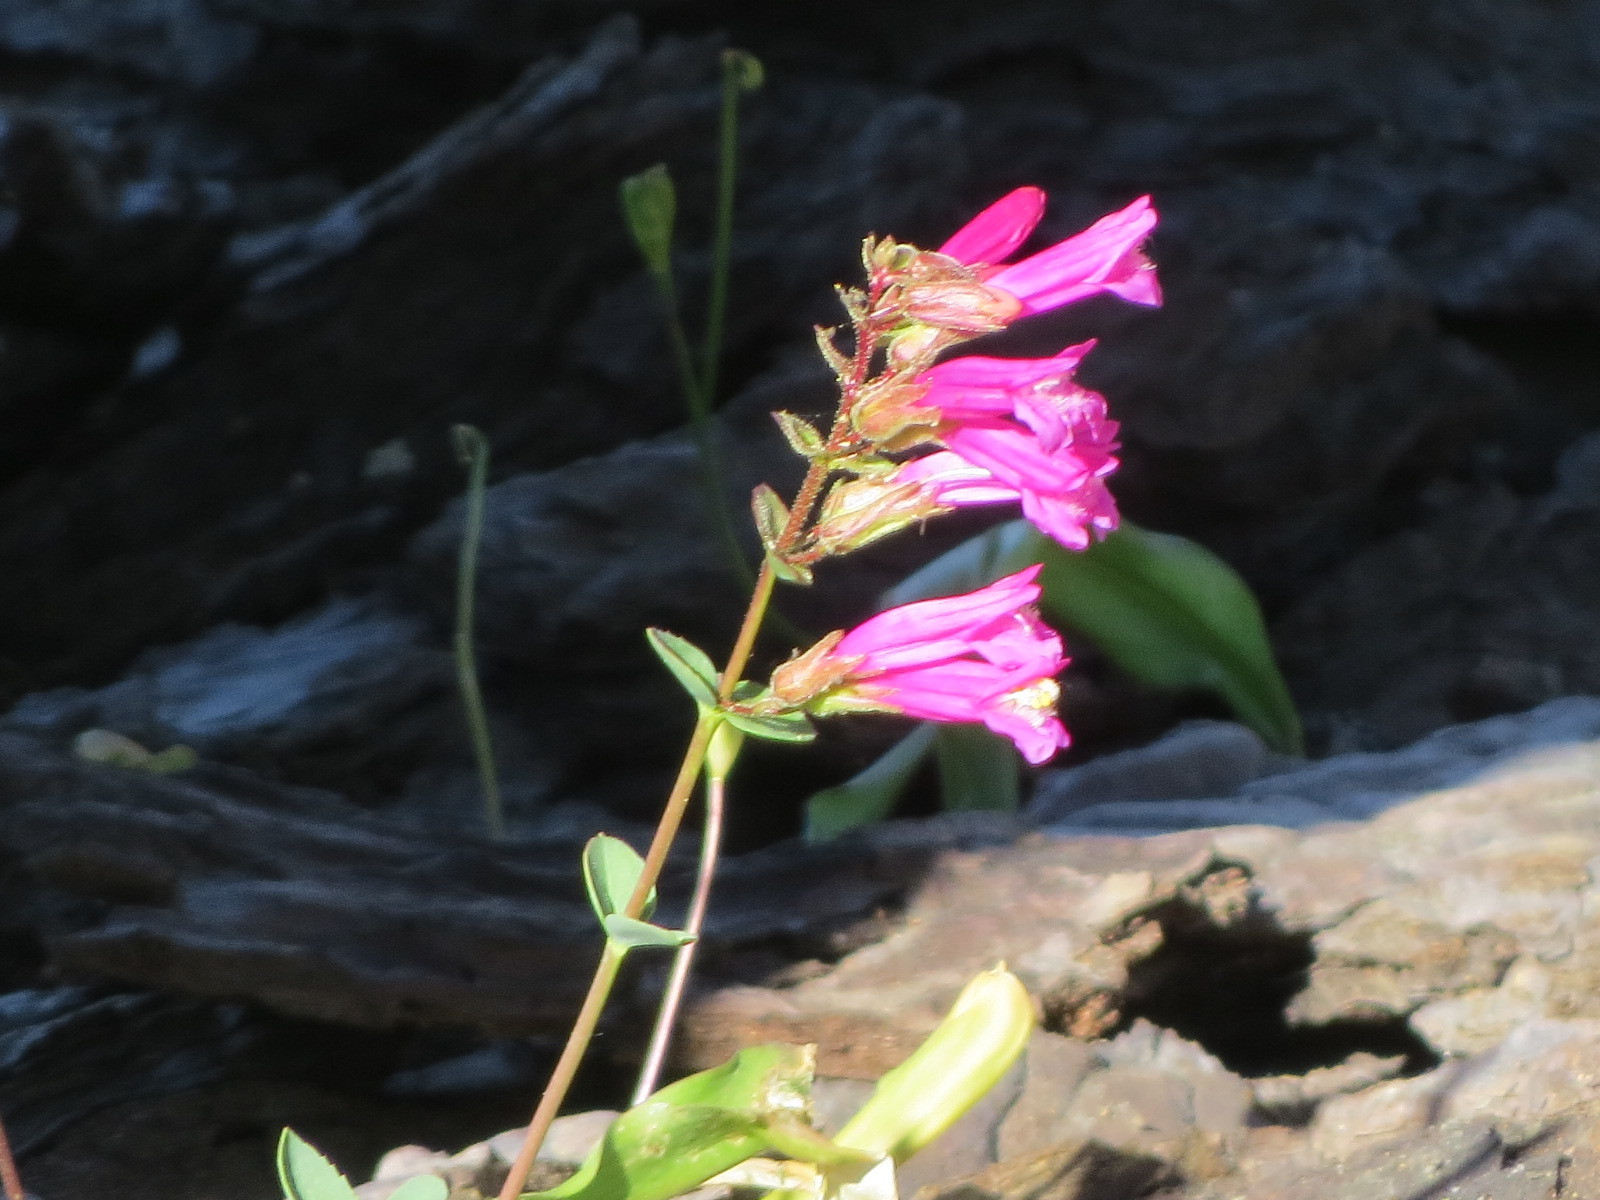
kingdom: Plantae
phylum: Tracheophyta
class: Magnoliopsida
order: Lamiales
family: Plantaginaceae
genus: Penstemon
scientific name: Penstemon newberryi
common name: Mountain-pride
